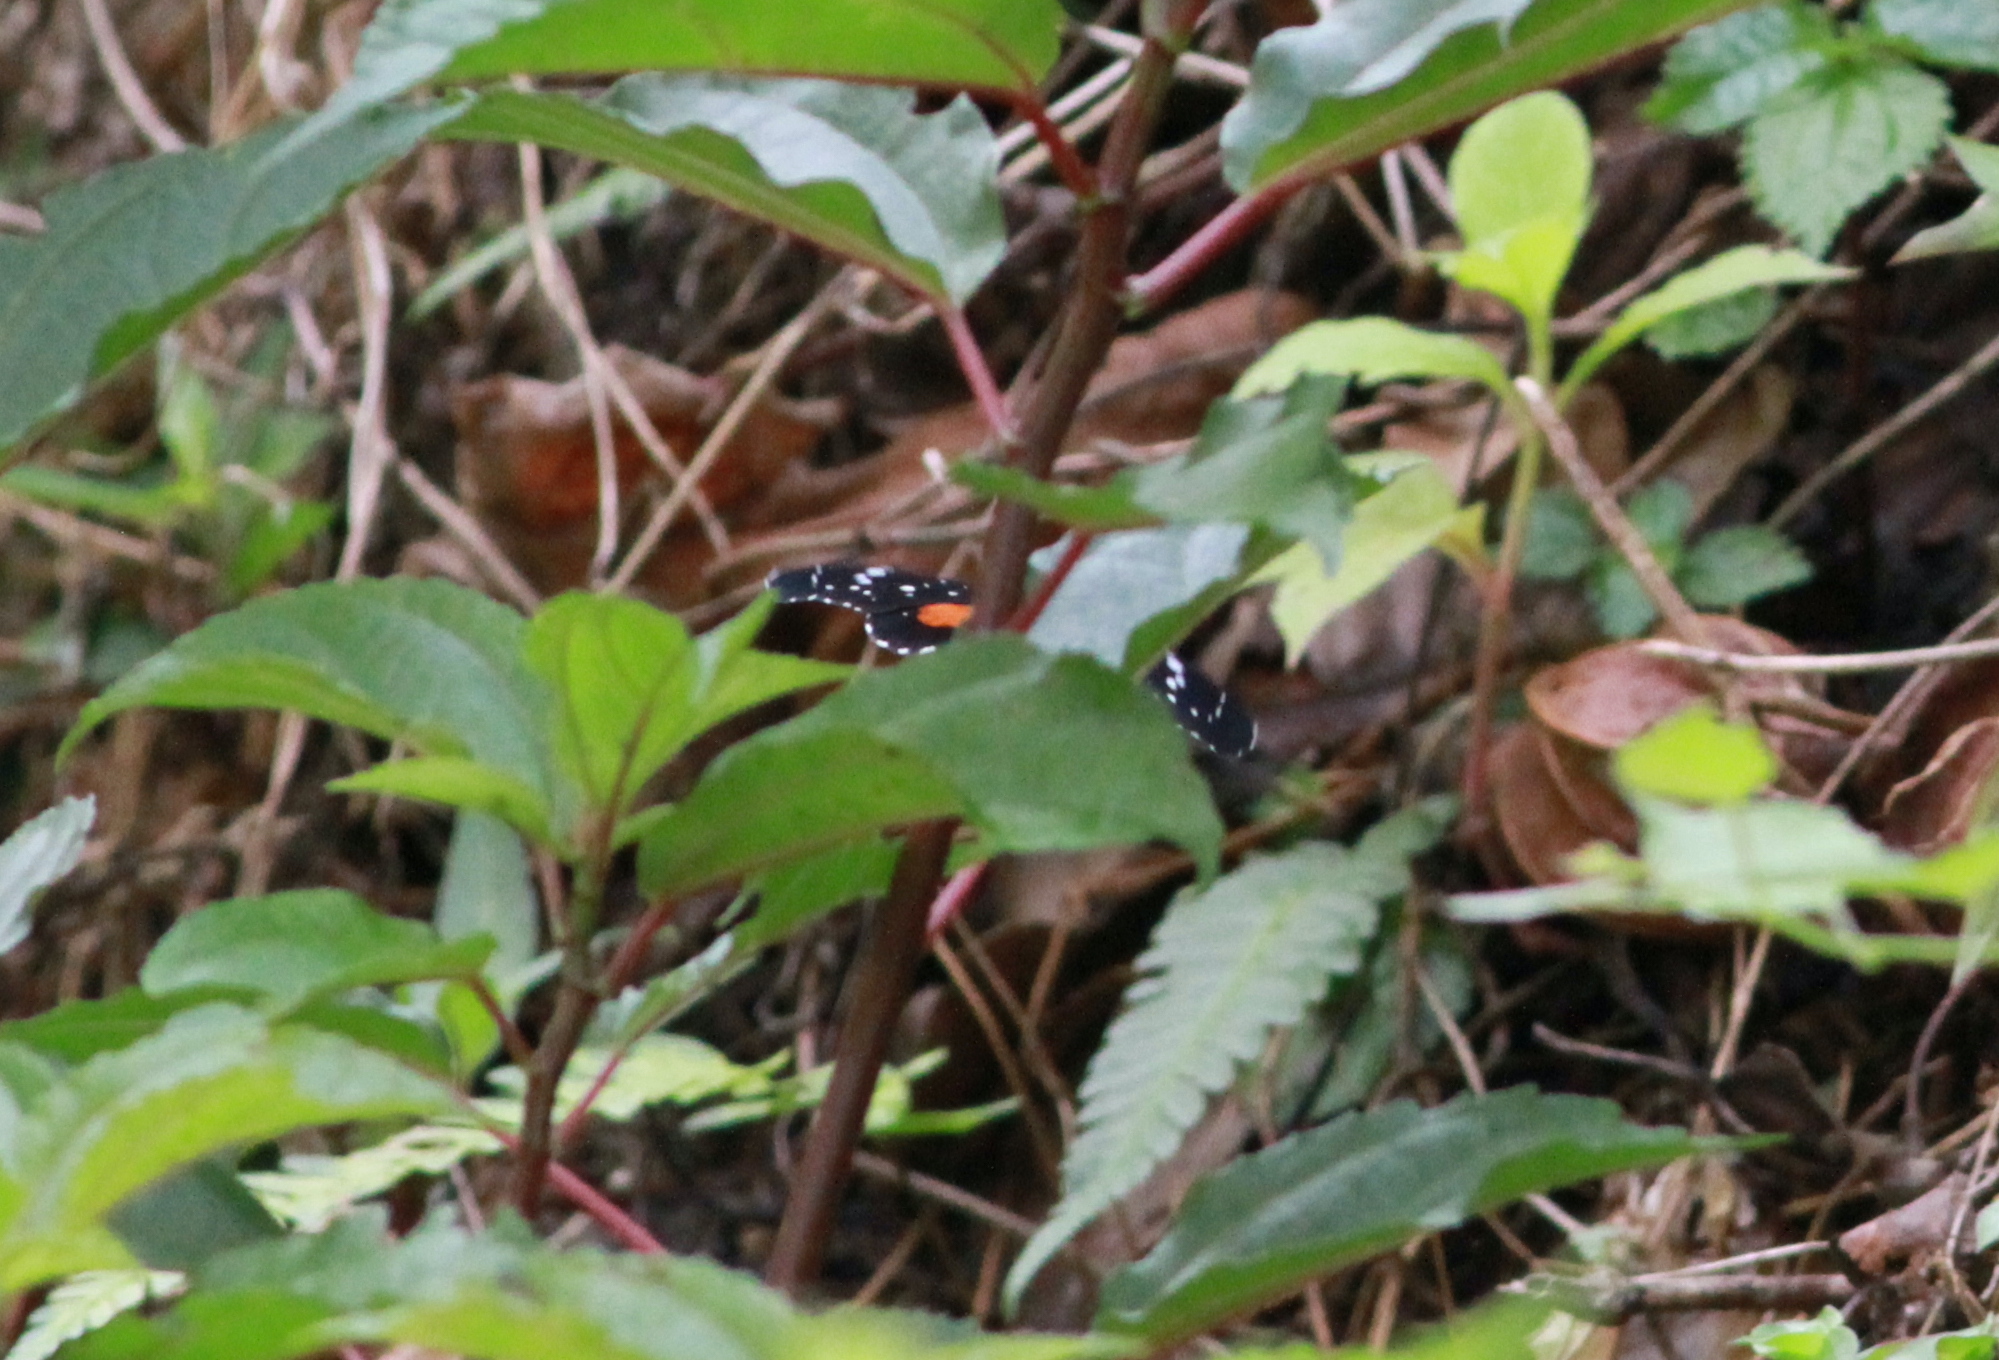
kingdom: Animalia
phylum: Arthropoda
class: Insecta
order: Lepidoptera
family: Nymphalidae
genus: Chlosyne
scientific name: Chlosyne janais
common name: Crimson patch
